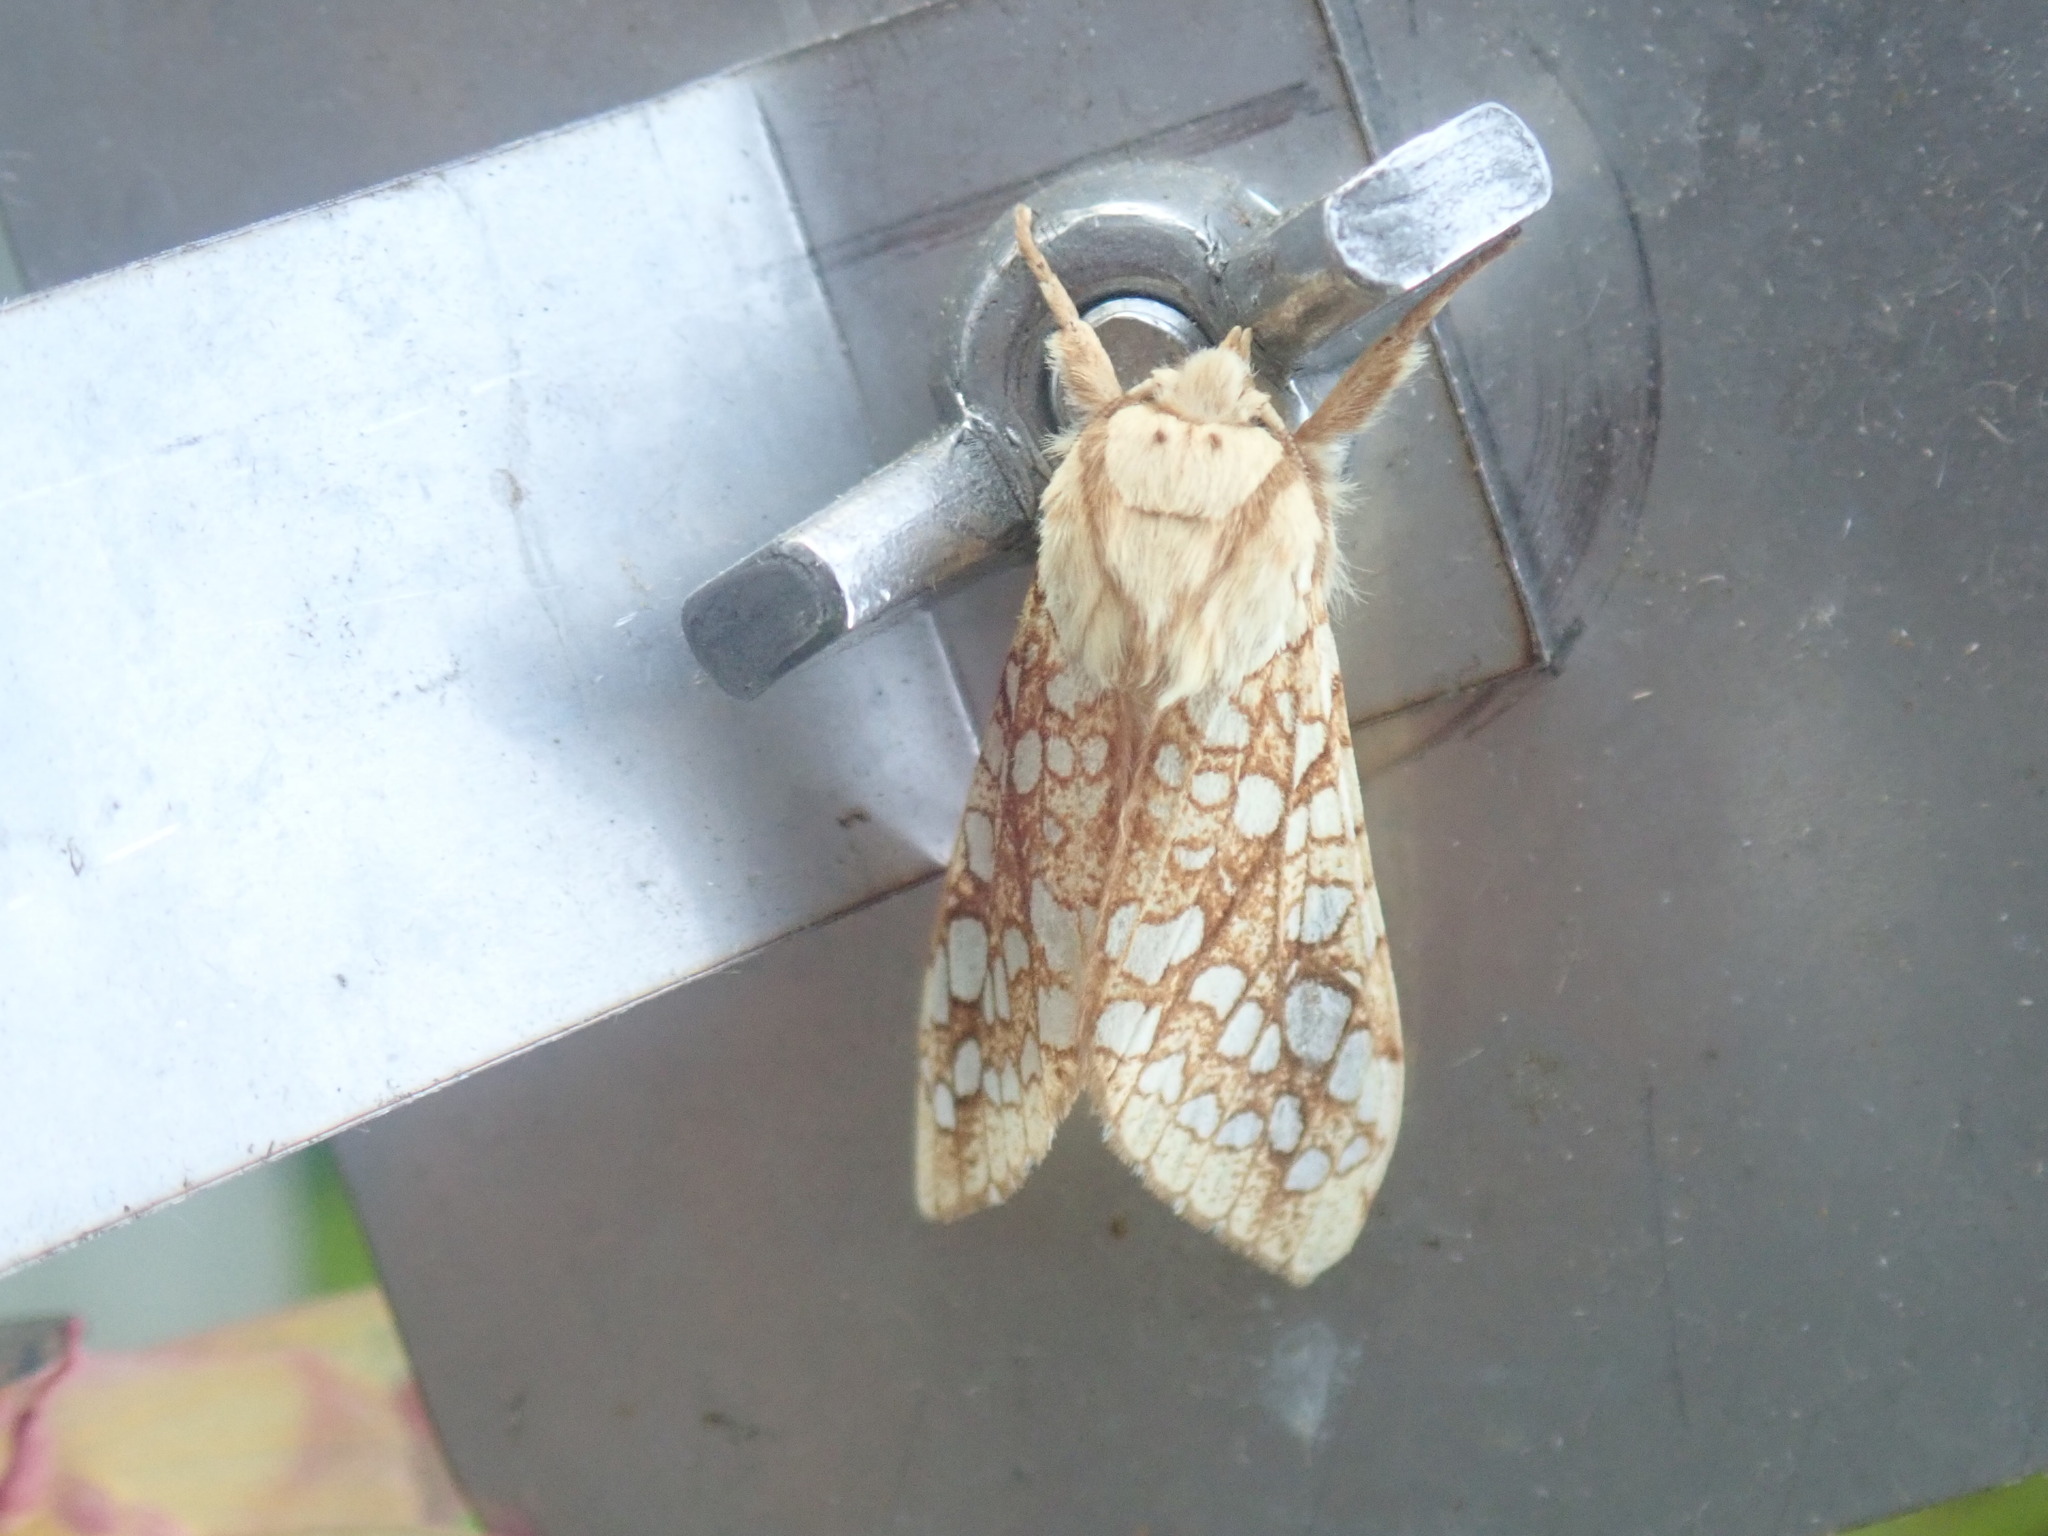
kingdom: Animalia
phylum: Arthropoda
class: Insecta
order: Lepidoptera
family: Erebidae
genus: Lophocampa
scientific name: Lophocampa caryae
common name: Hickory tussock moth
